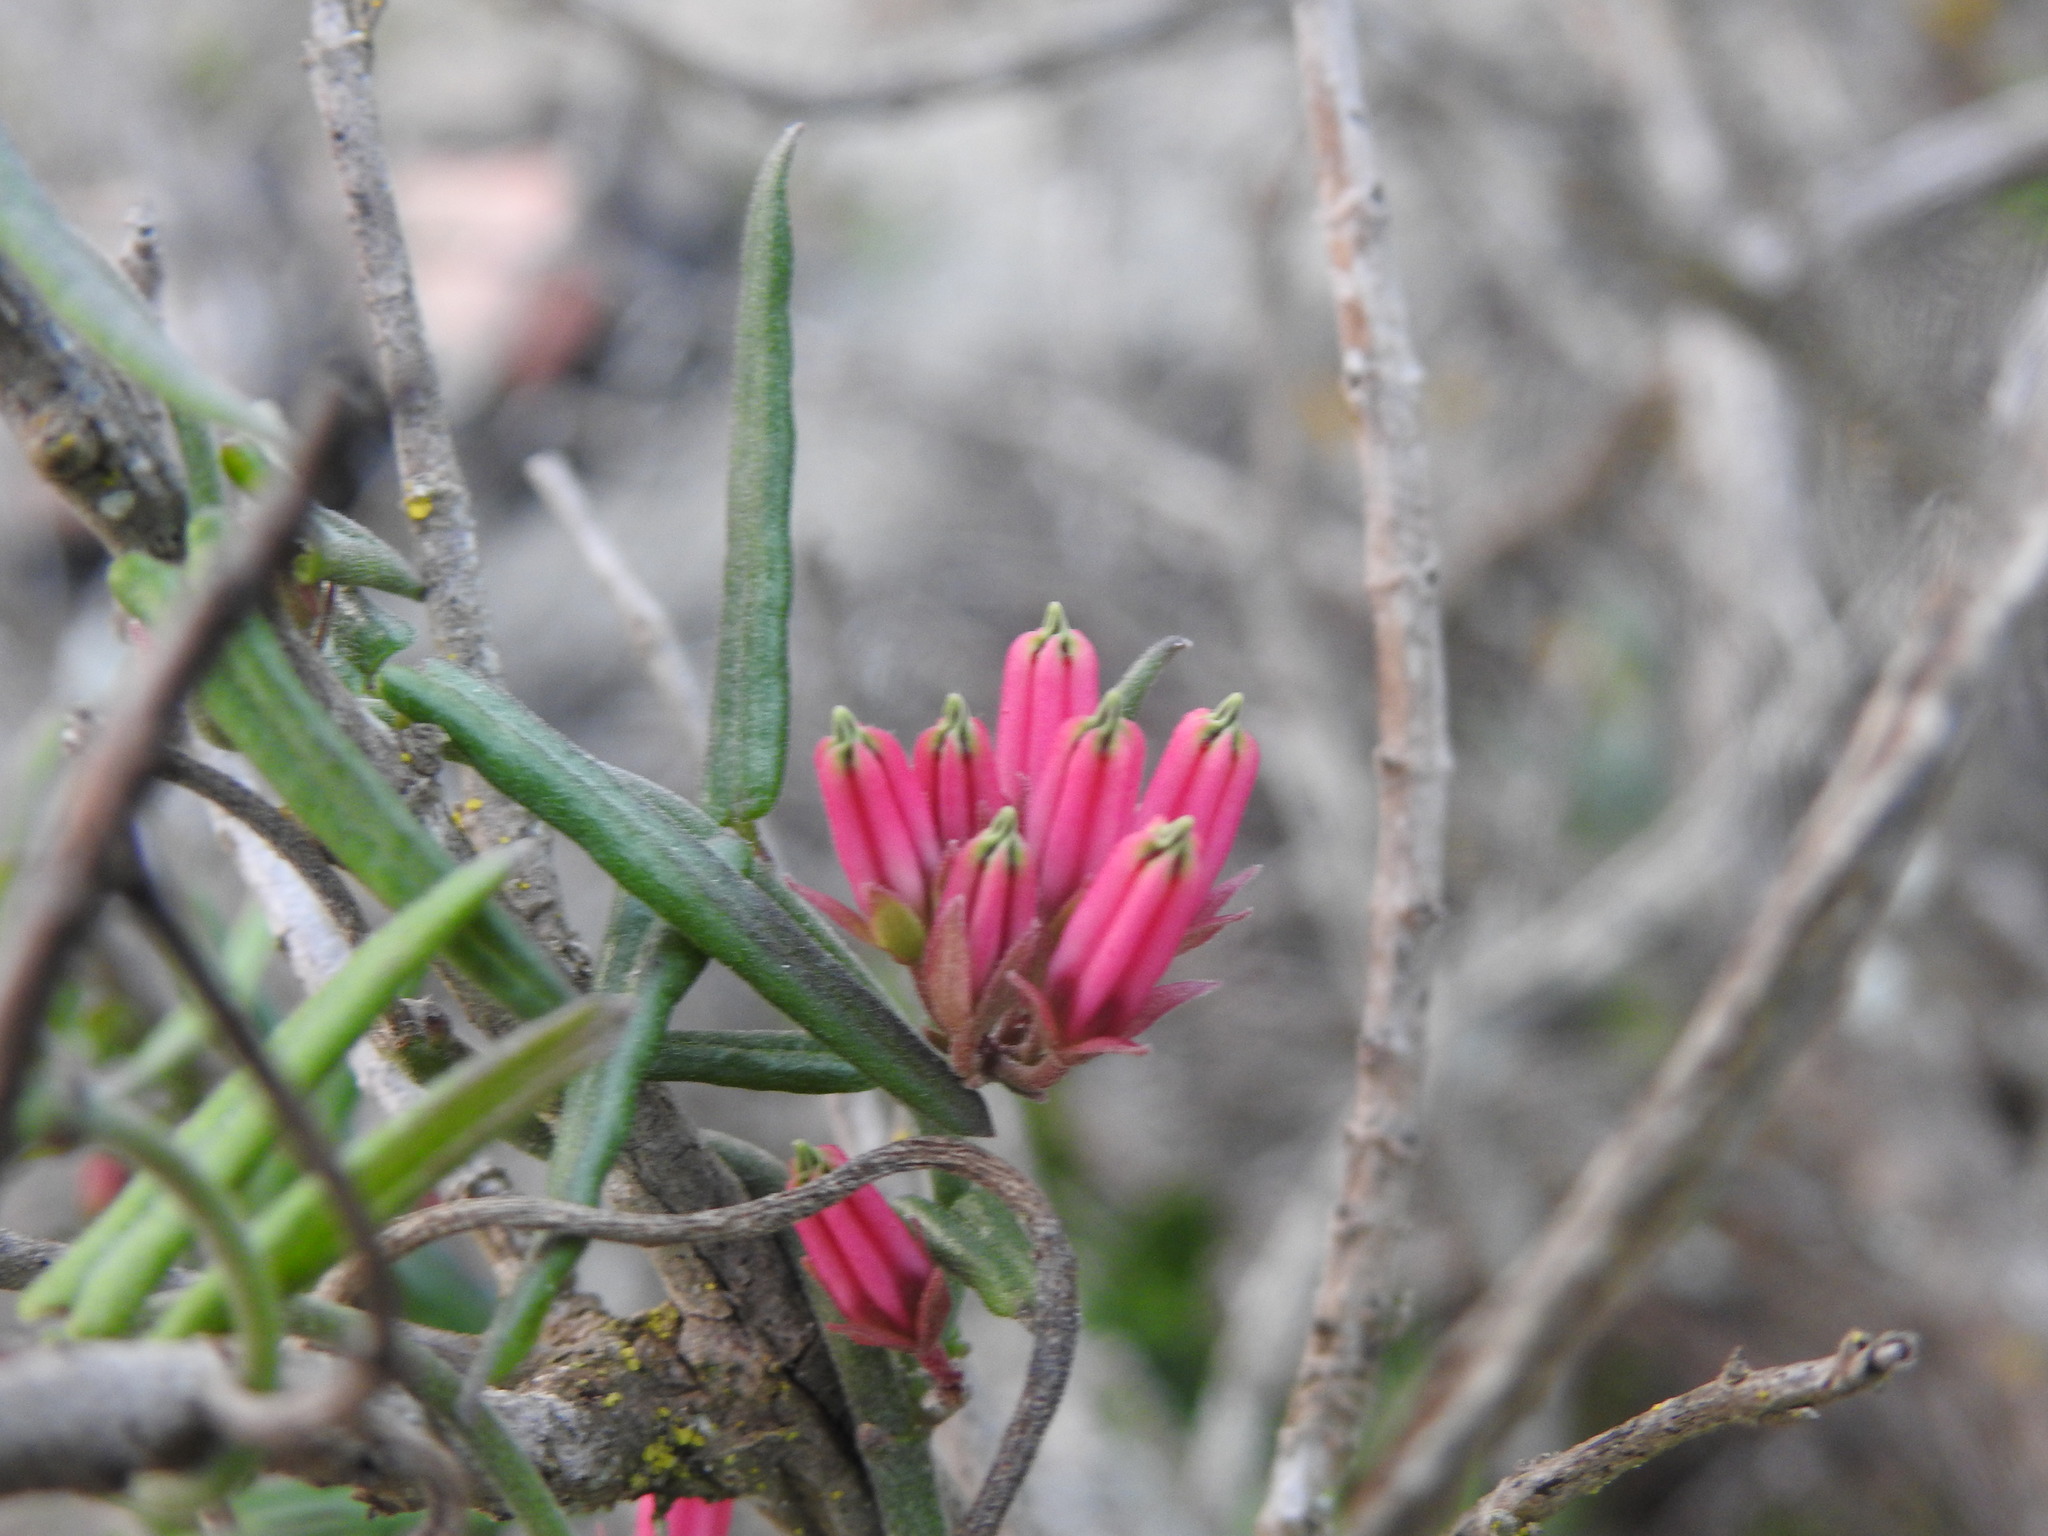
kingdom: Plantae
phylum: Tracheophyta
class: Magnoliopsida
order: Gentianales
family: Apocynaceae
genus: Microloma
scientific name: Microloma sagittatum
